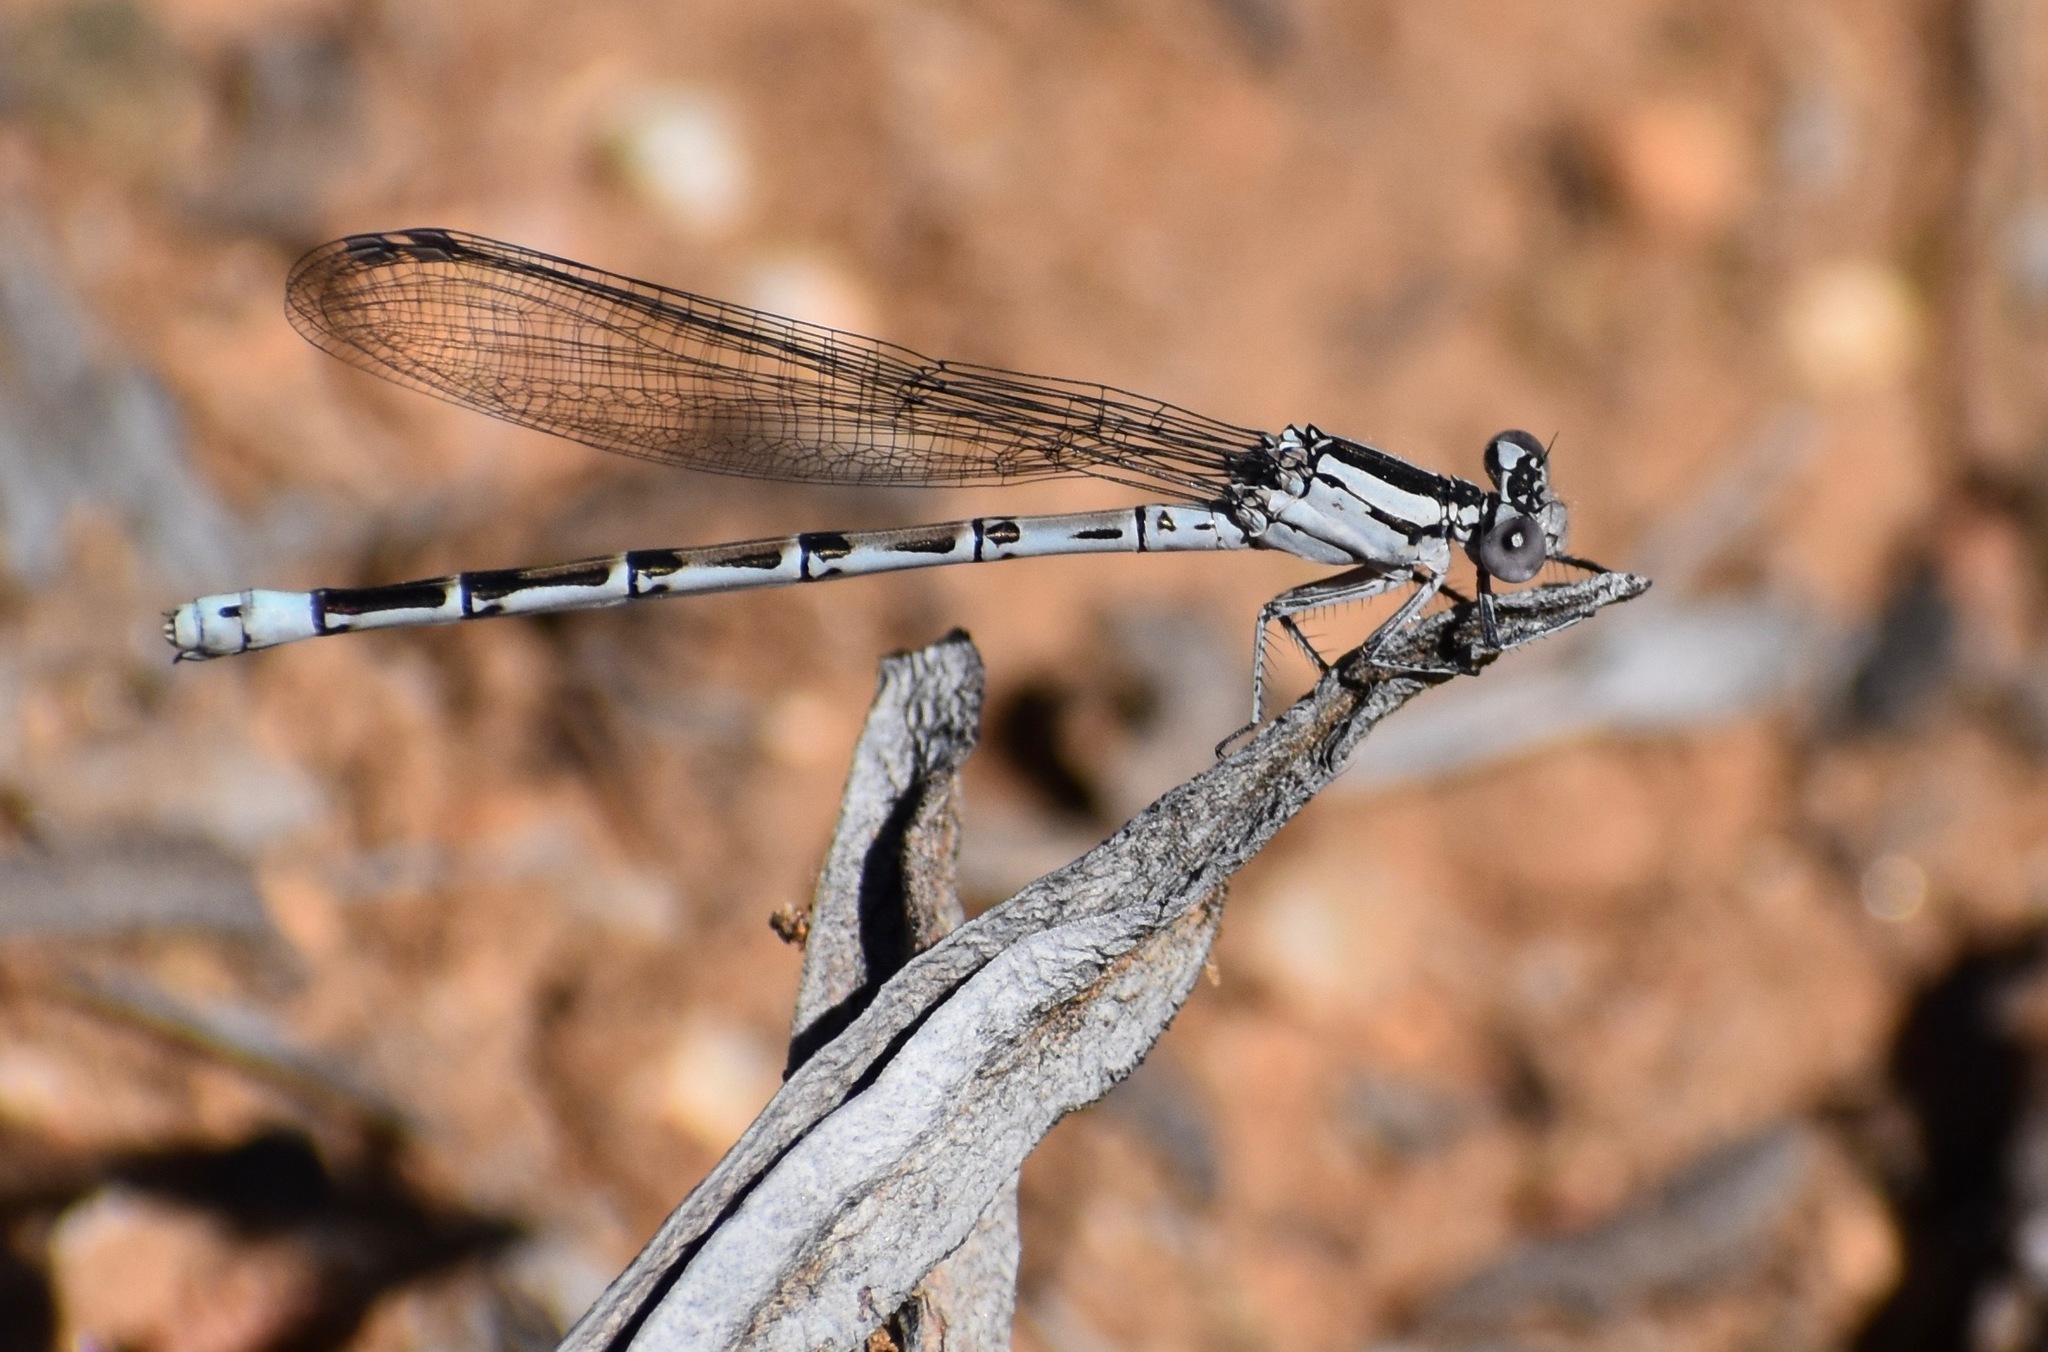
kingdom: Animalia
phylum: Arthropoda
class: Insecta
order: Odonata
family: Coenagrionidae
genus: Argia
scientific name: Argia vivida
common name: Vivid dancer
